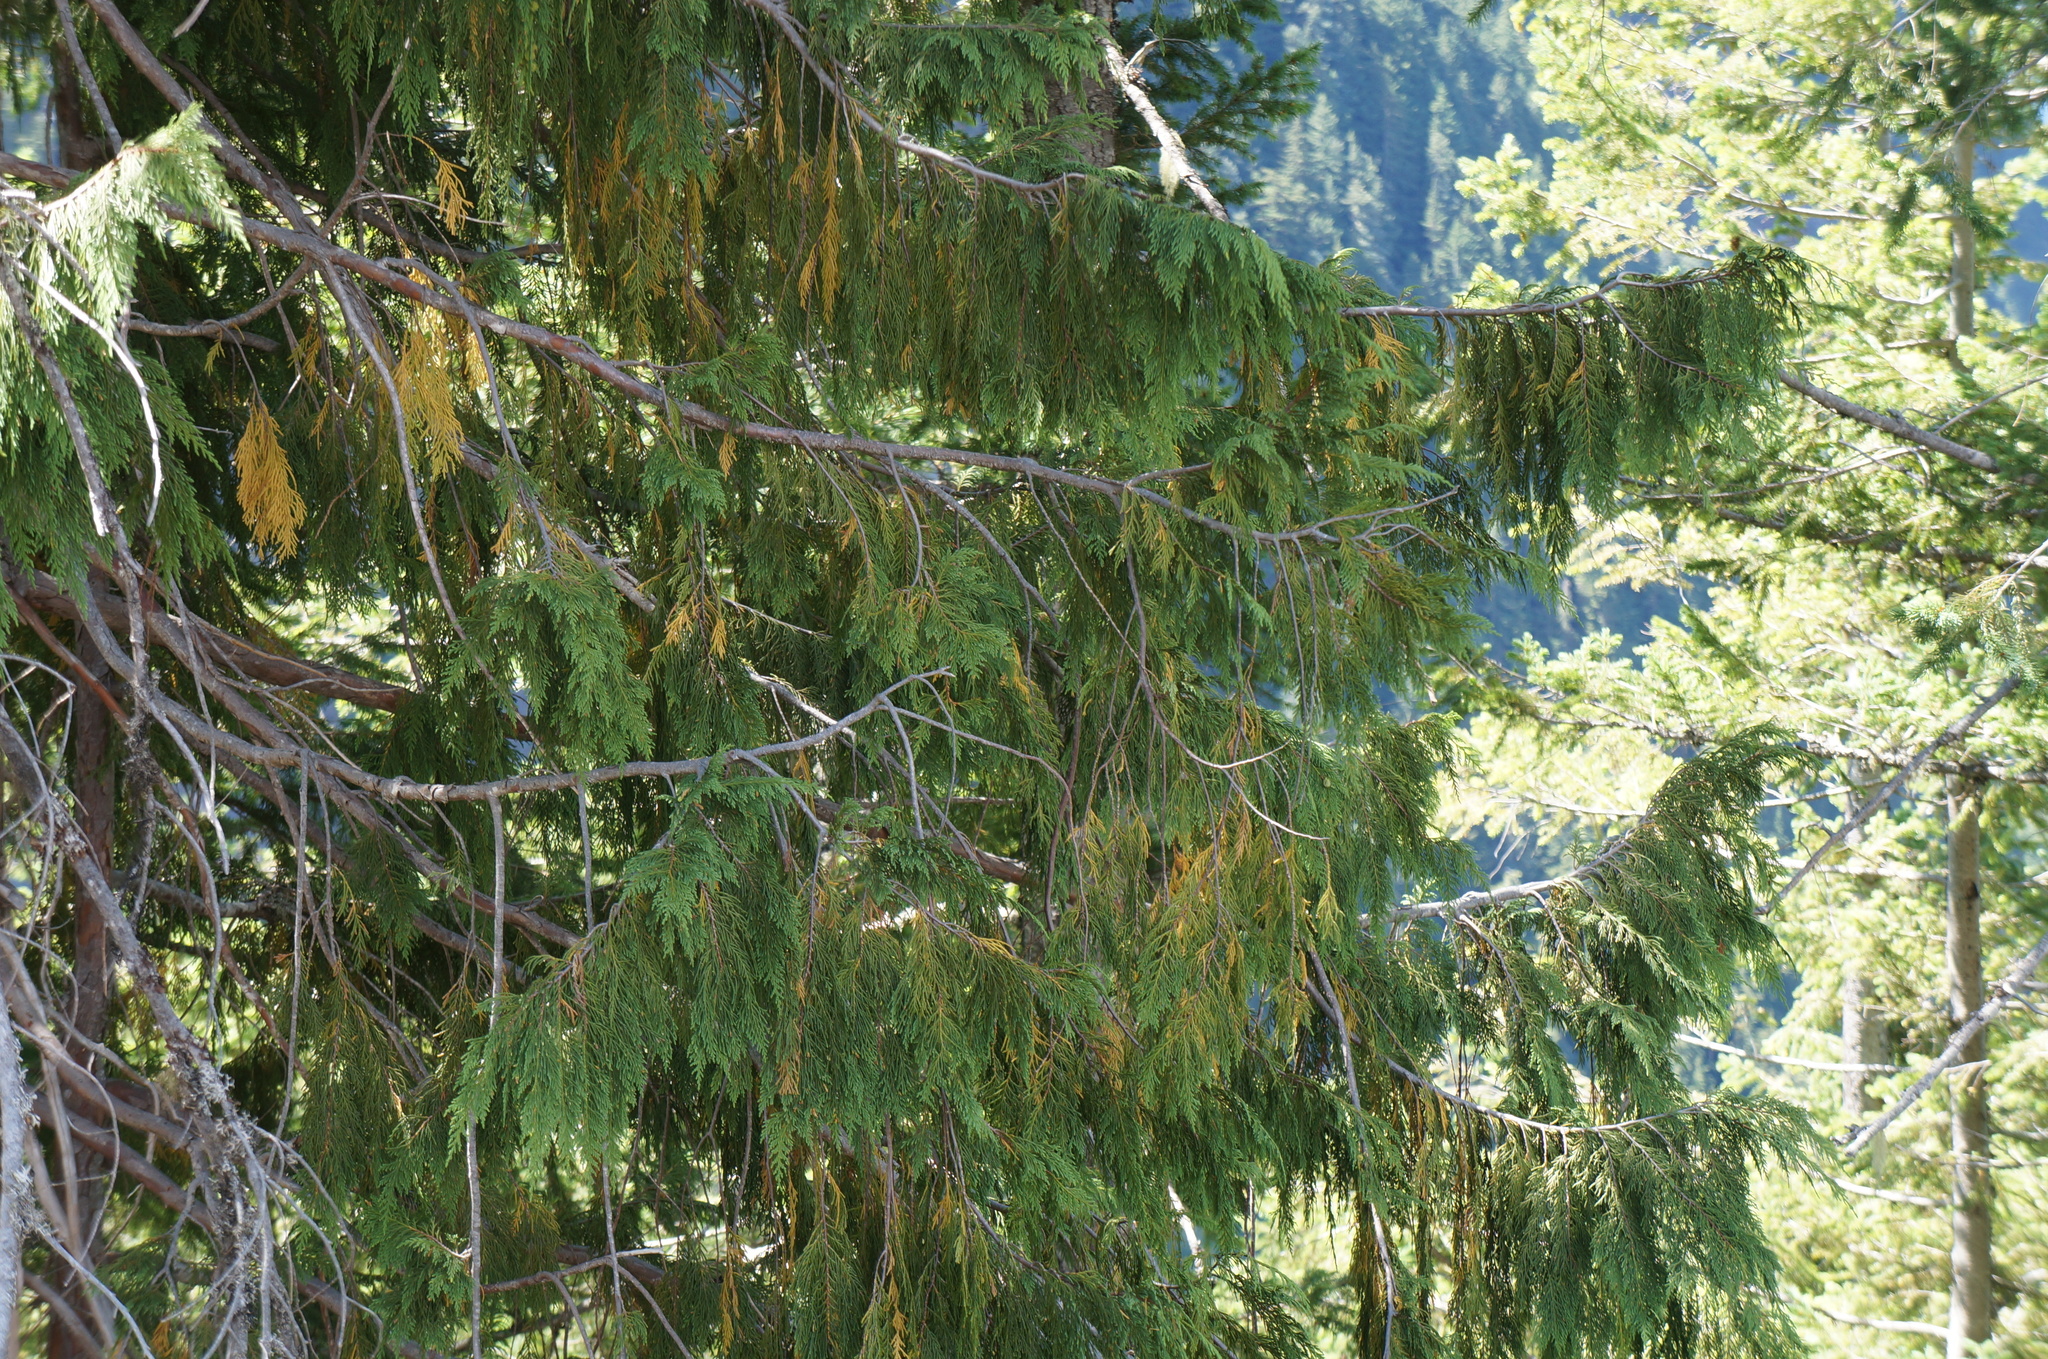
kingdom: Plantae
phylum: Tracheophyta
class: Pinopsida
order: Pinales
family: Cupressaceae
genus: Xanthocyparis
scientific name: Xanthocyparis nootkatensis
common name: Nootka cypress
